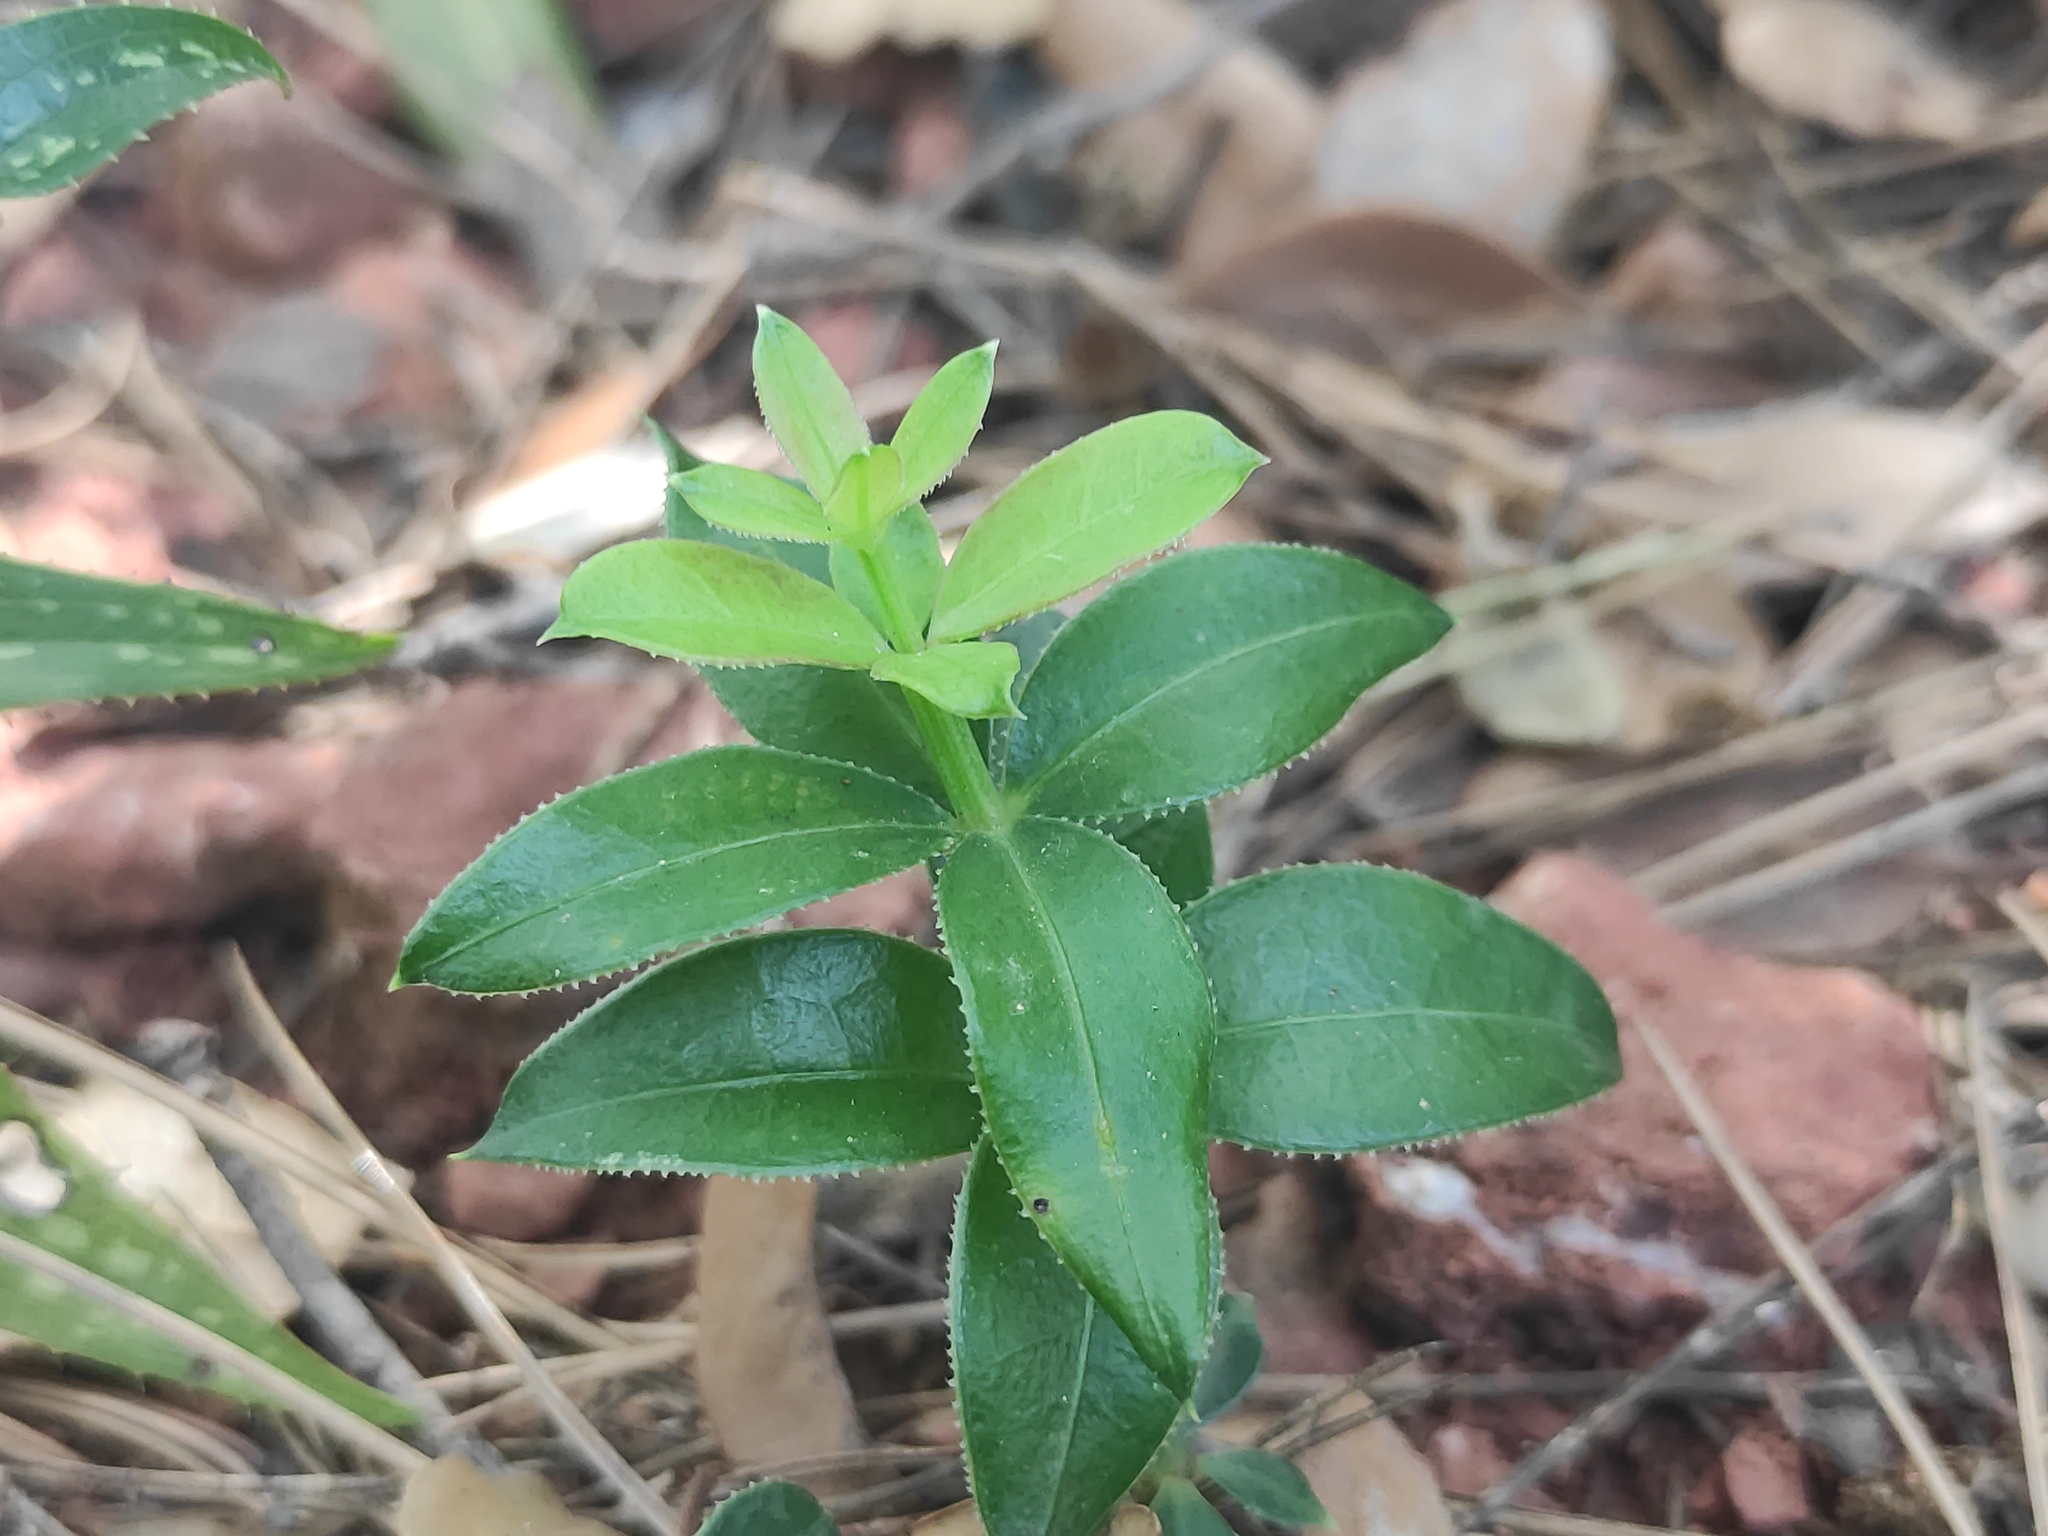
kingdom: Plantae
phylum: Tracheophyta
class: Magnoliopsida
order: Gentianales
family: Rubiaceae
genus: Rubia
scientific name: Rubia peregrina
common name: Wild madder
